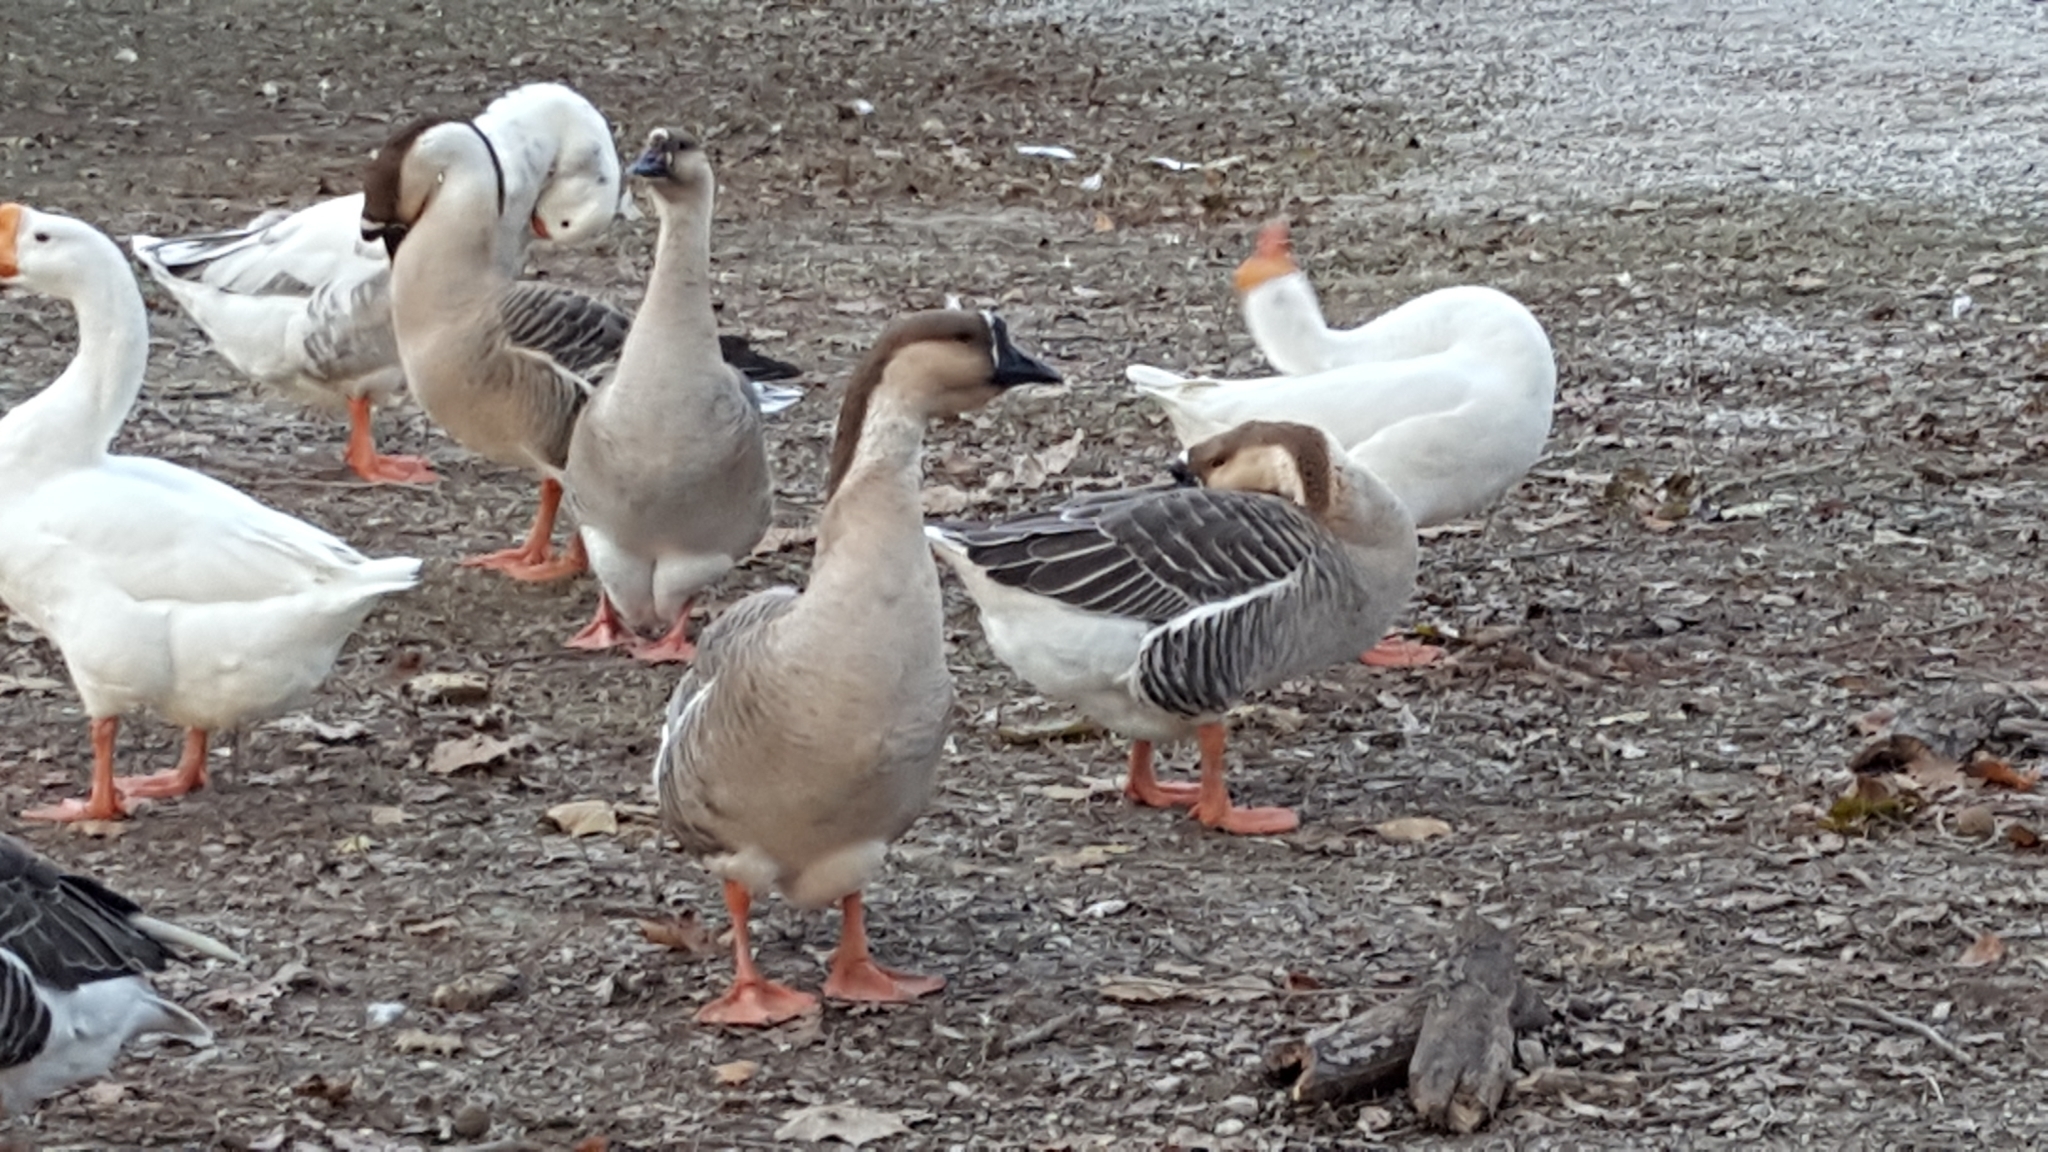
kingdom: Animalia
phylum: Chordata
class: Aves
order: Anseriformes
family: Anatidae
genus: Anser
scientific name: Anser cygnoides
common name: Swan goose
